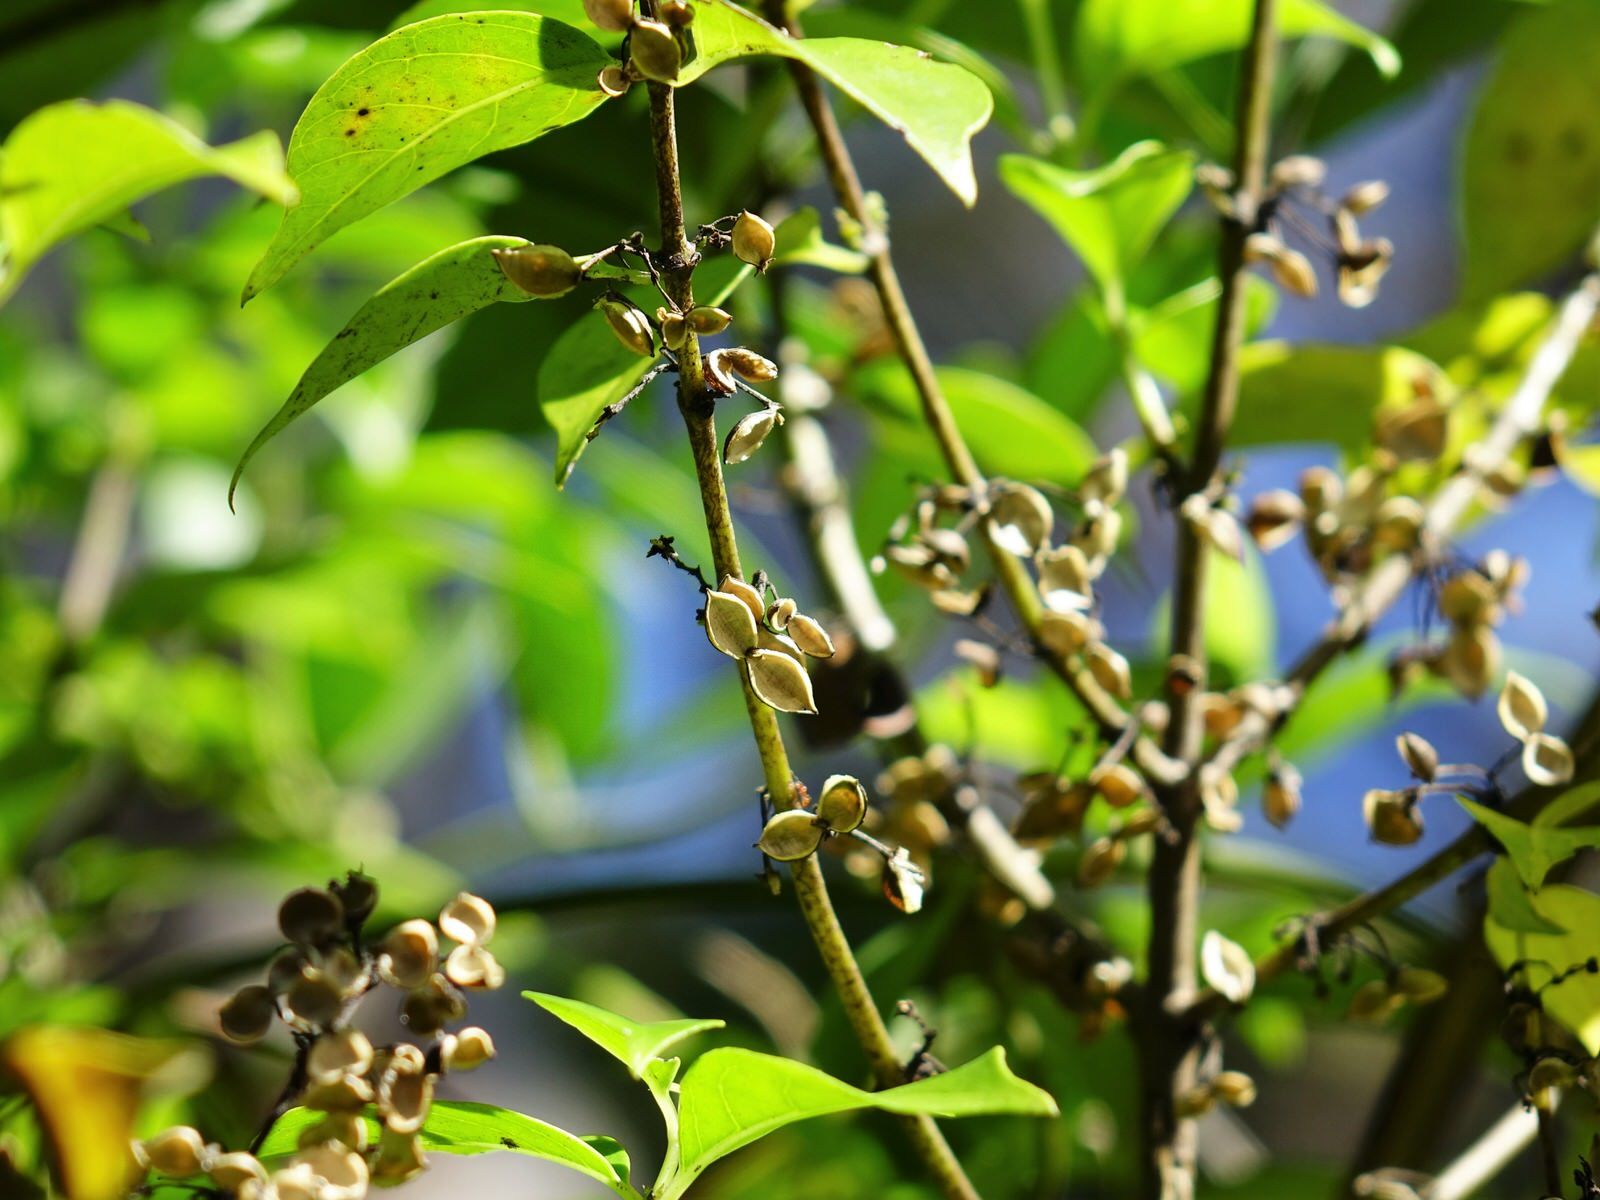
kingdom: Plantae
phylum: Tracheophyta
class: Magnoliopsida
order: Gentianales
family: Loganiaceae
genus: Geniostoma
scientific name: Geniostoma ligustrifolium
